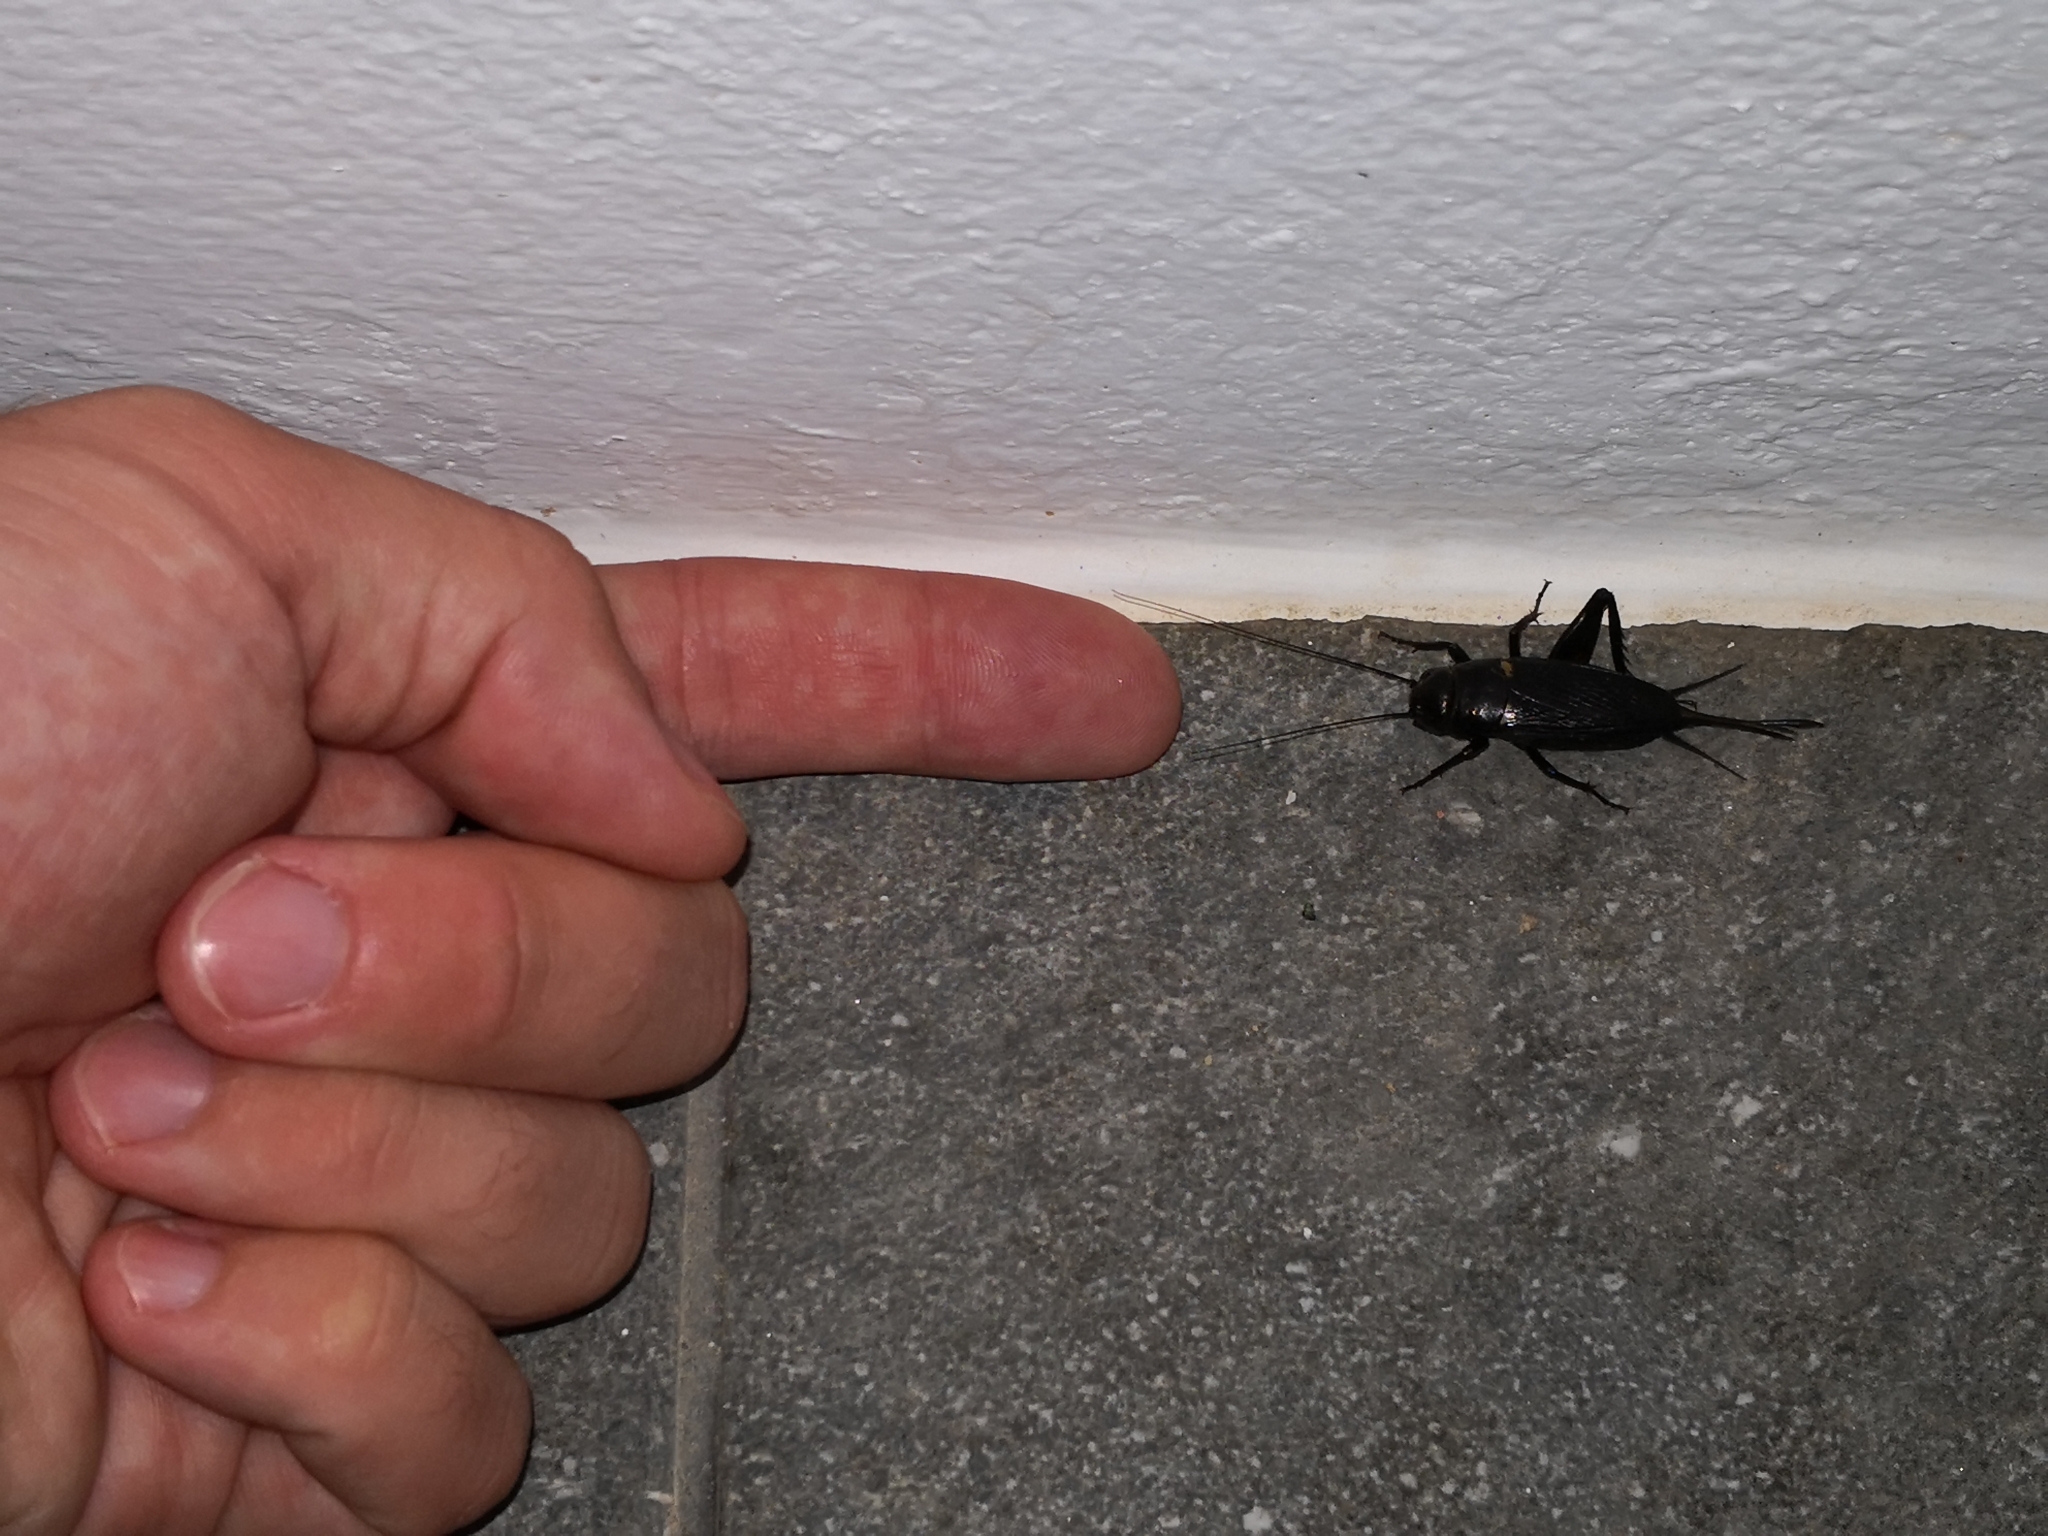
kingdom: Animalia
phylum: Arthropoda
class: Insecta
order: Orthoptera
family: Gryllidae
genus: Gryllus
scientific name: Gryllus bimaculatus
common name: Two-spotted cricket
